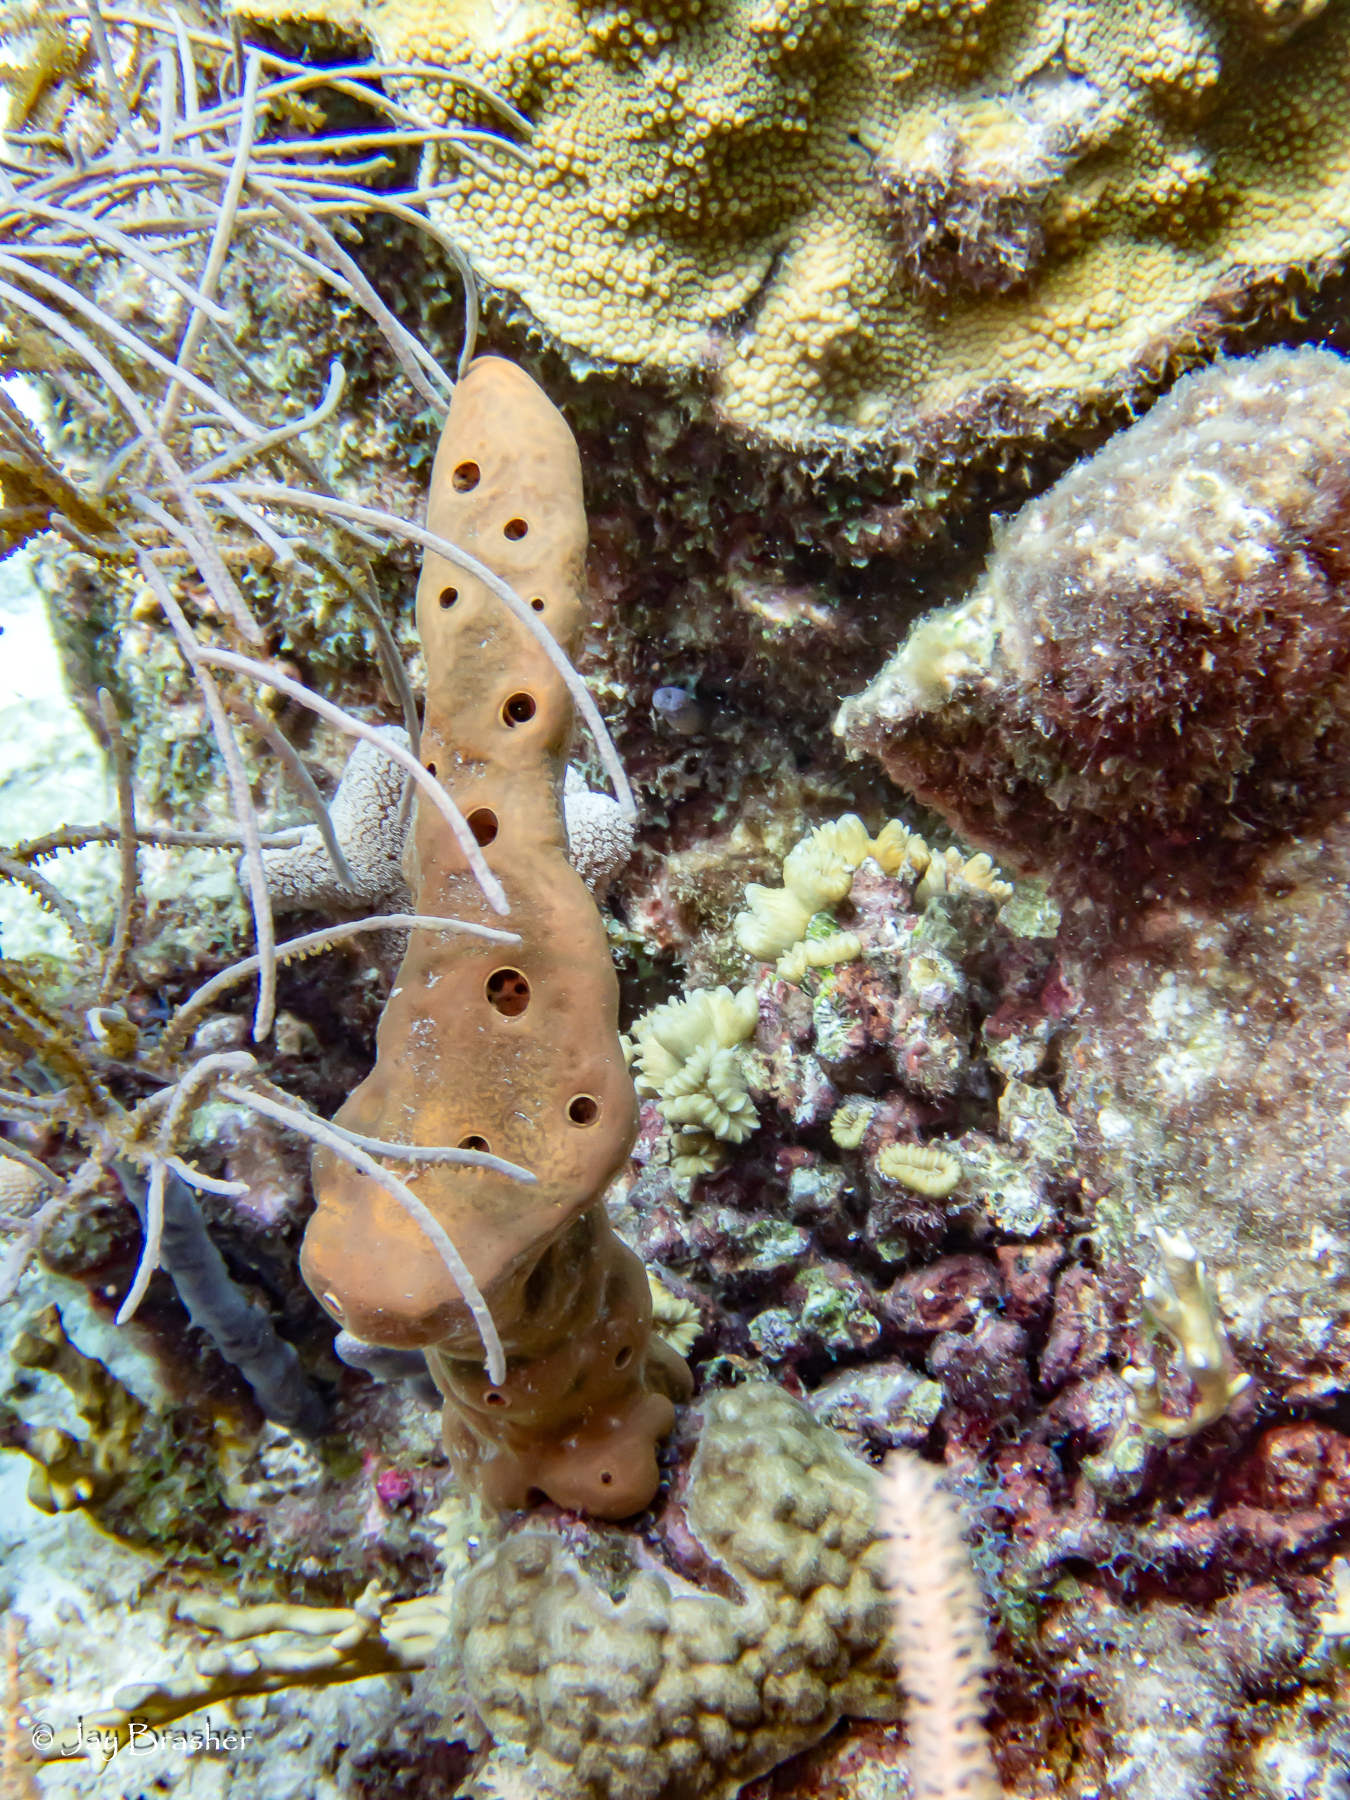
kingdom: Animalia
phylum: Porifera
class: Demospongiae
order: Agelasida
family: Agelasidae
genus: Agelas
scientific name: Agelas conifera
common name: Brown tube sponge
